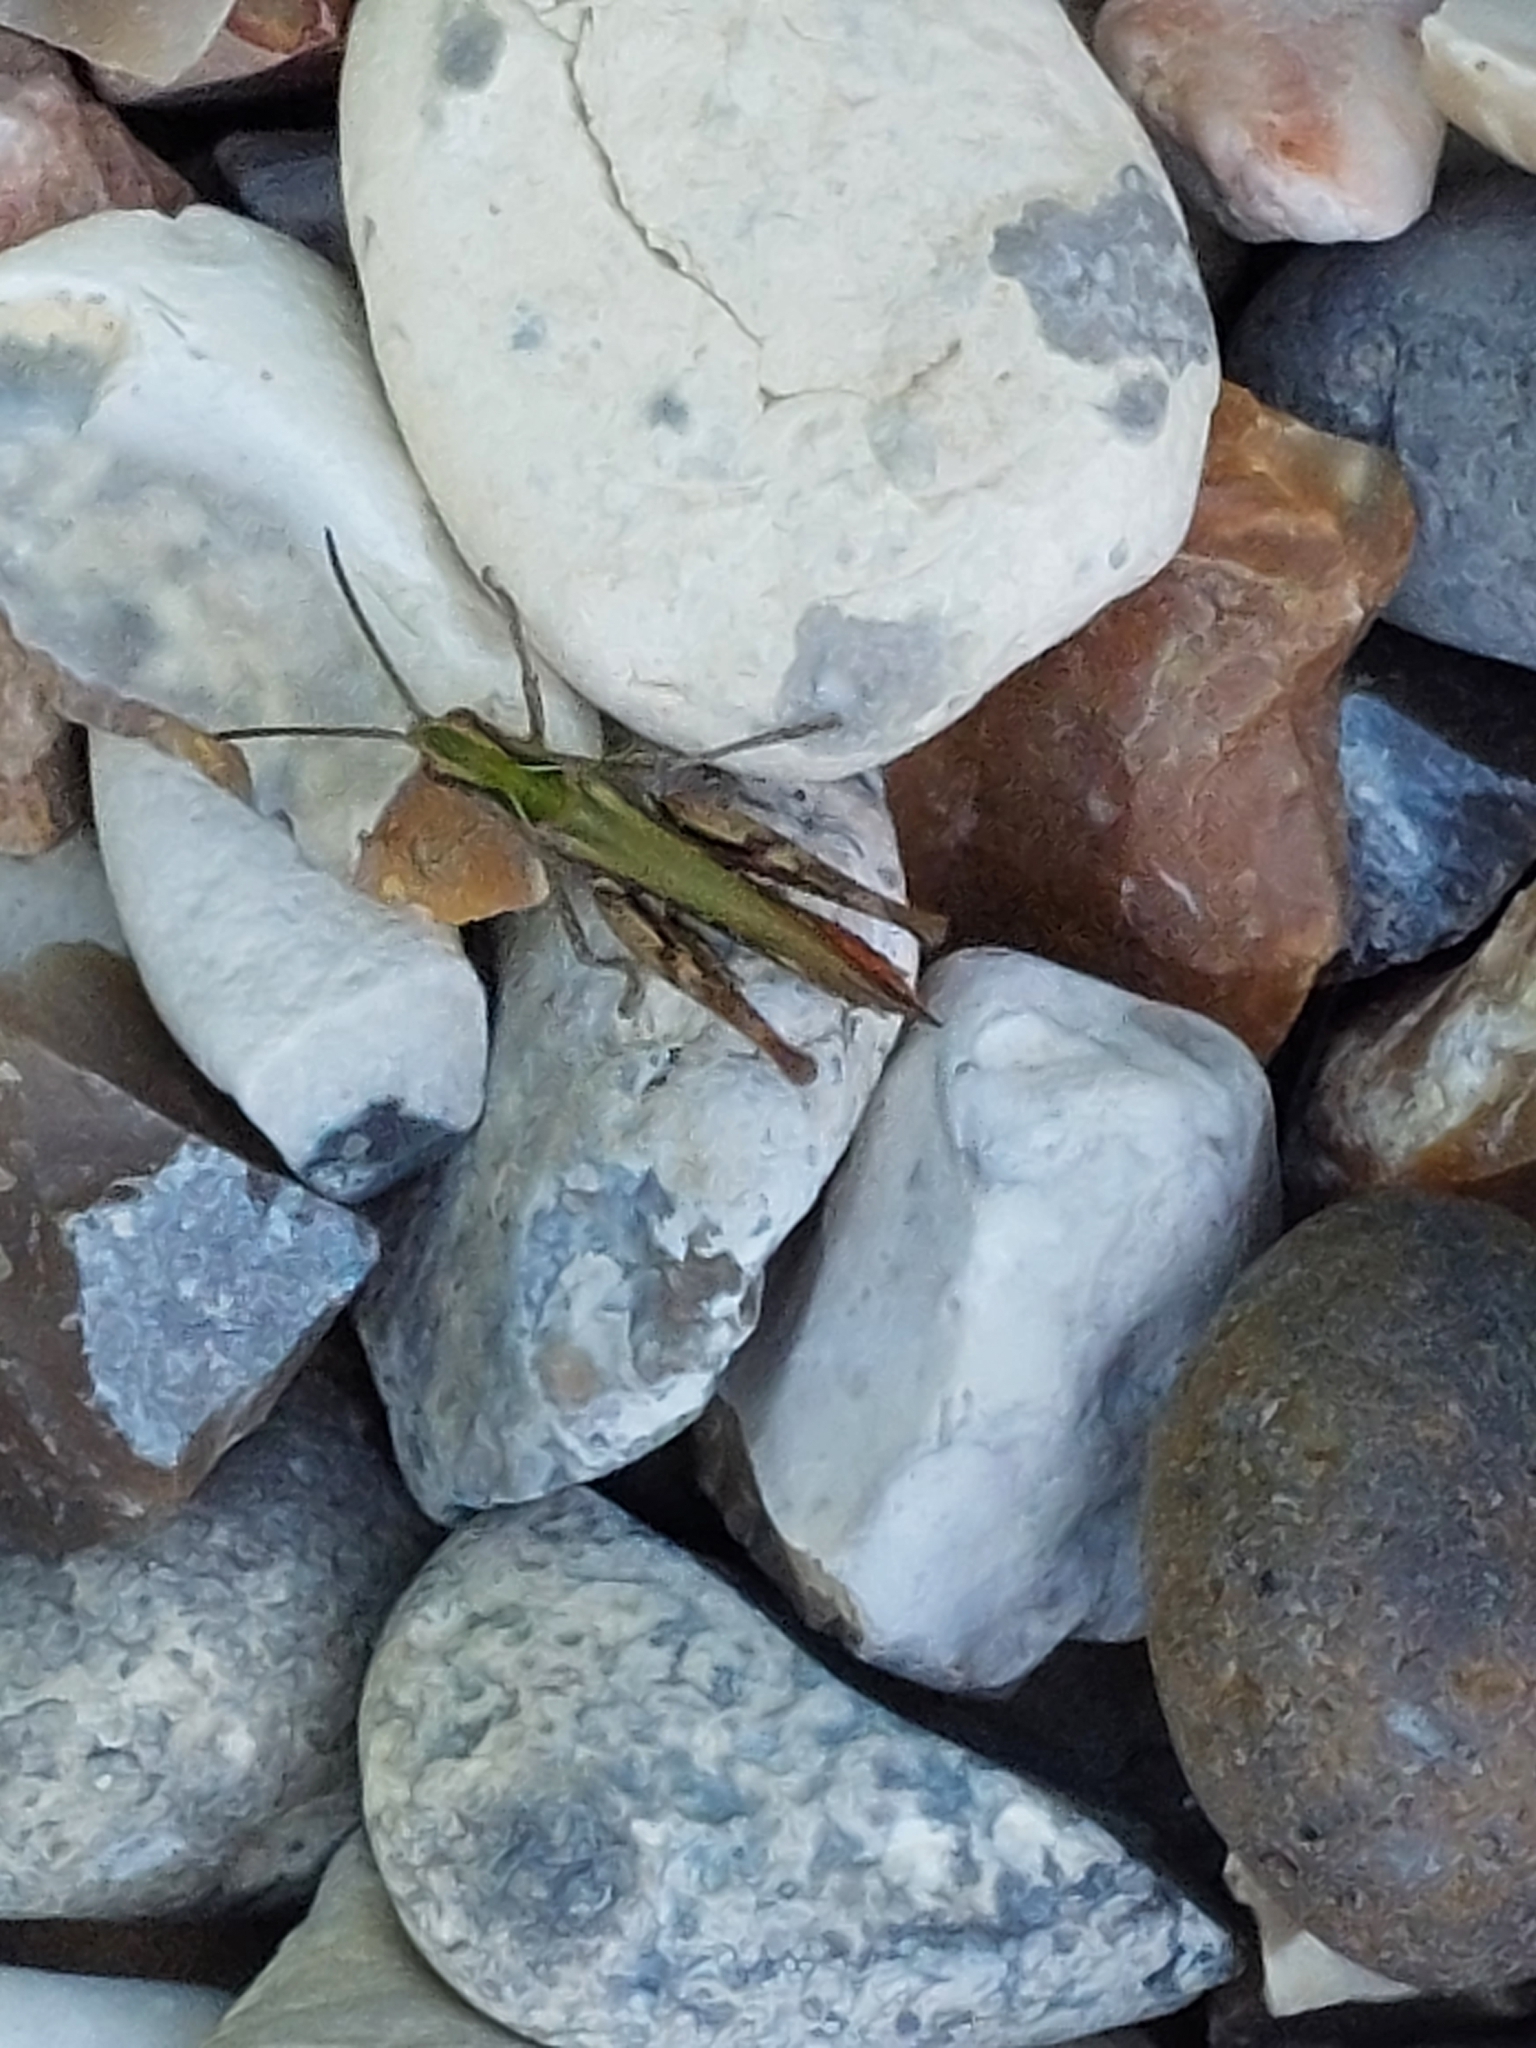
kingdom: Animalia
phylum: Arthropoda
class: Insecta
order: Orthoptera
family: Acrididae
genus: Chorthippus
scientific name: Chorthippus brunneus
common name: Field grasshopper
